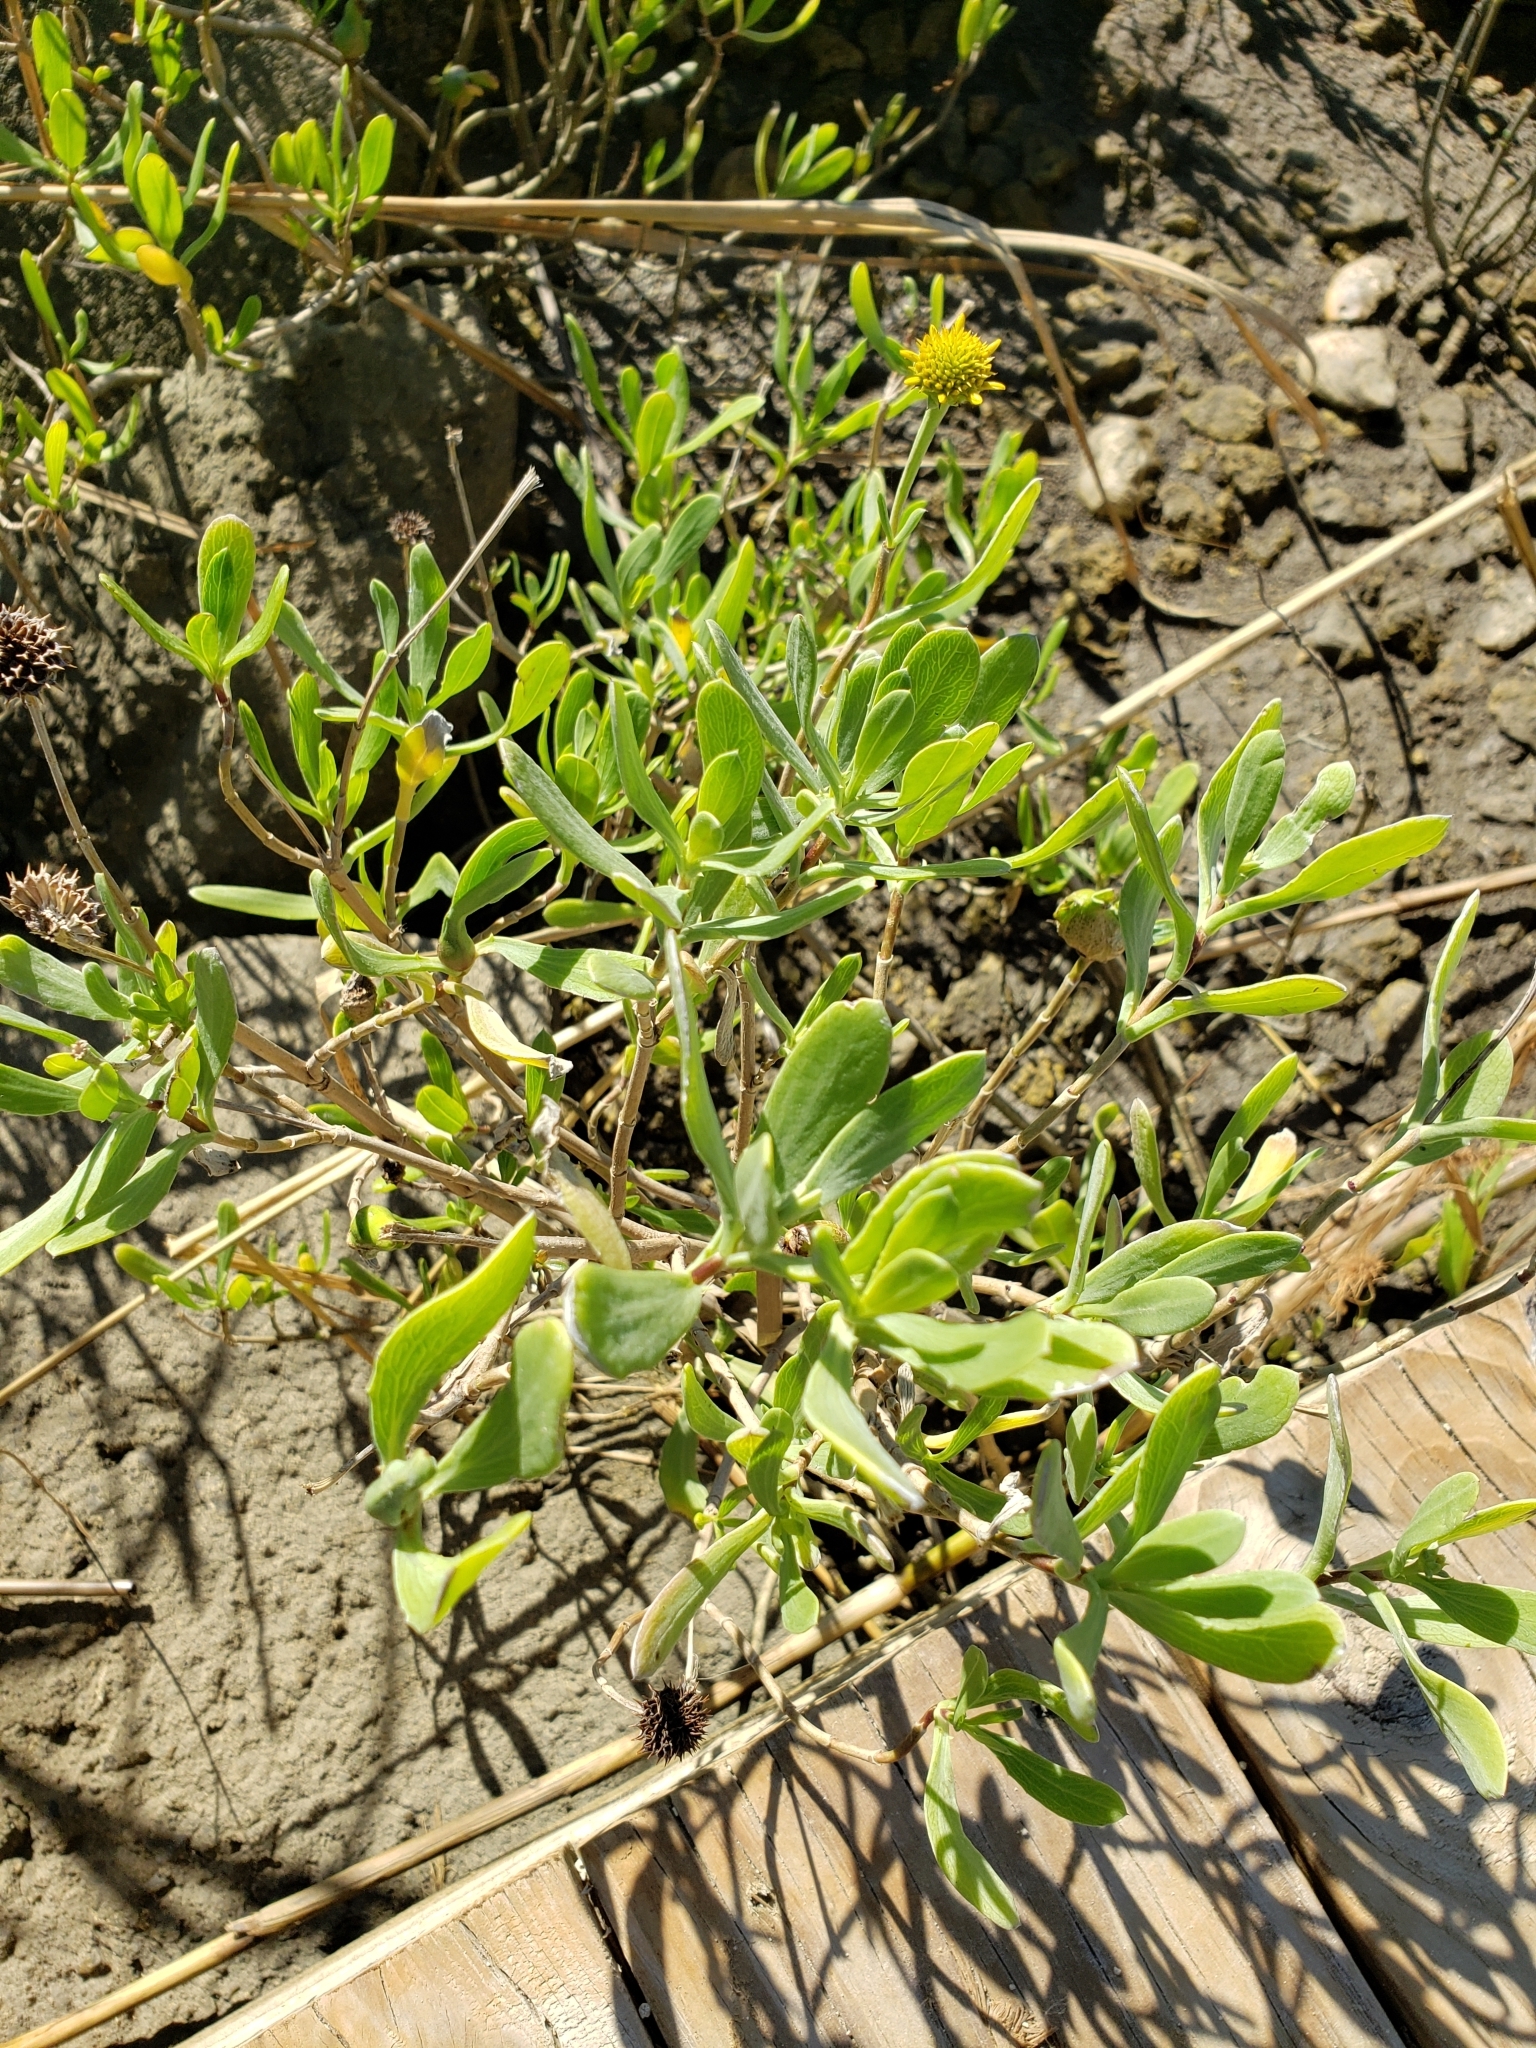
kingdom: Plantae
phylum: Tracheophyta
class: Magnoliopsida
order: Asterales
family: Asteraceae
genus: Borrichia
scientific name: Borrichia frutescens
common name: Sea oxeye
